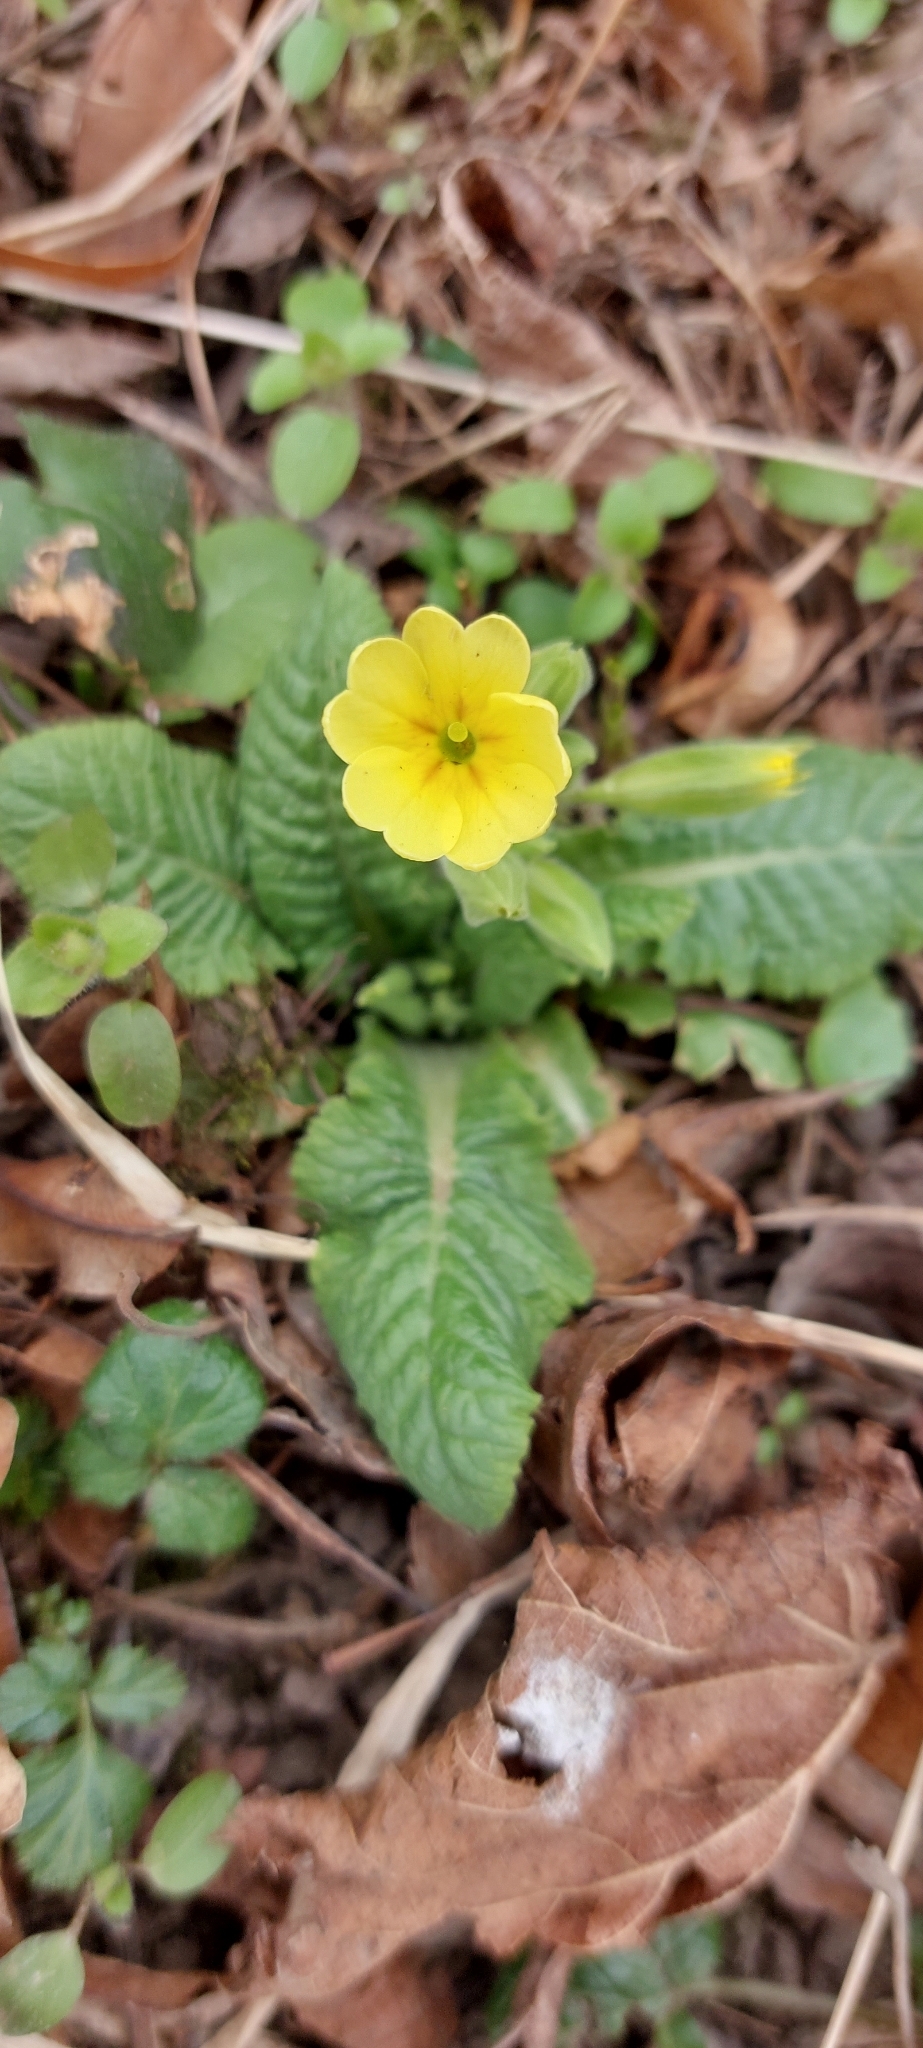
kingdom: Plantae
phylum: Tracheophyta
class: Magnoliopsida
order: Ericales
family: Primulaceae
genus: Primula
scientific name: Primula polyantha
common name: False oxlip
